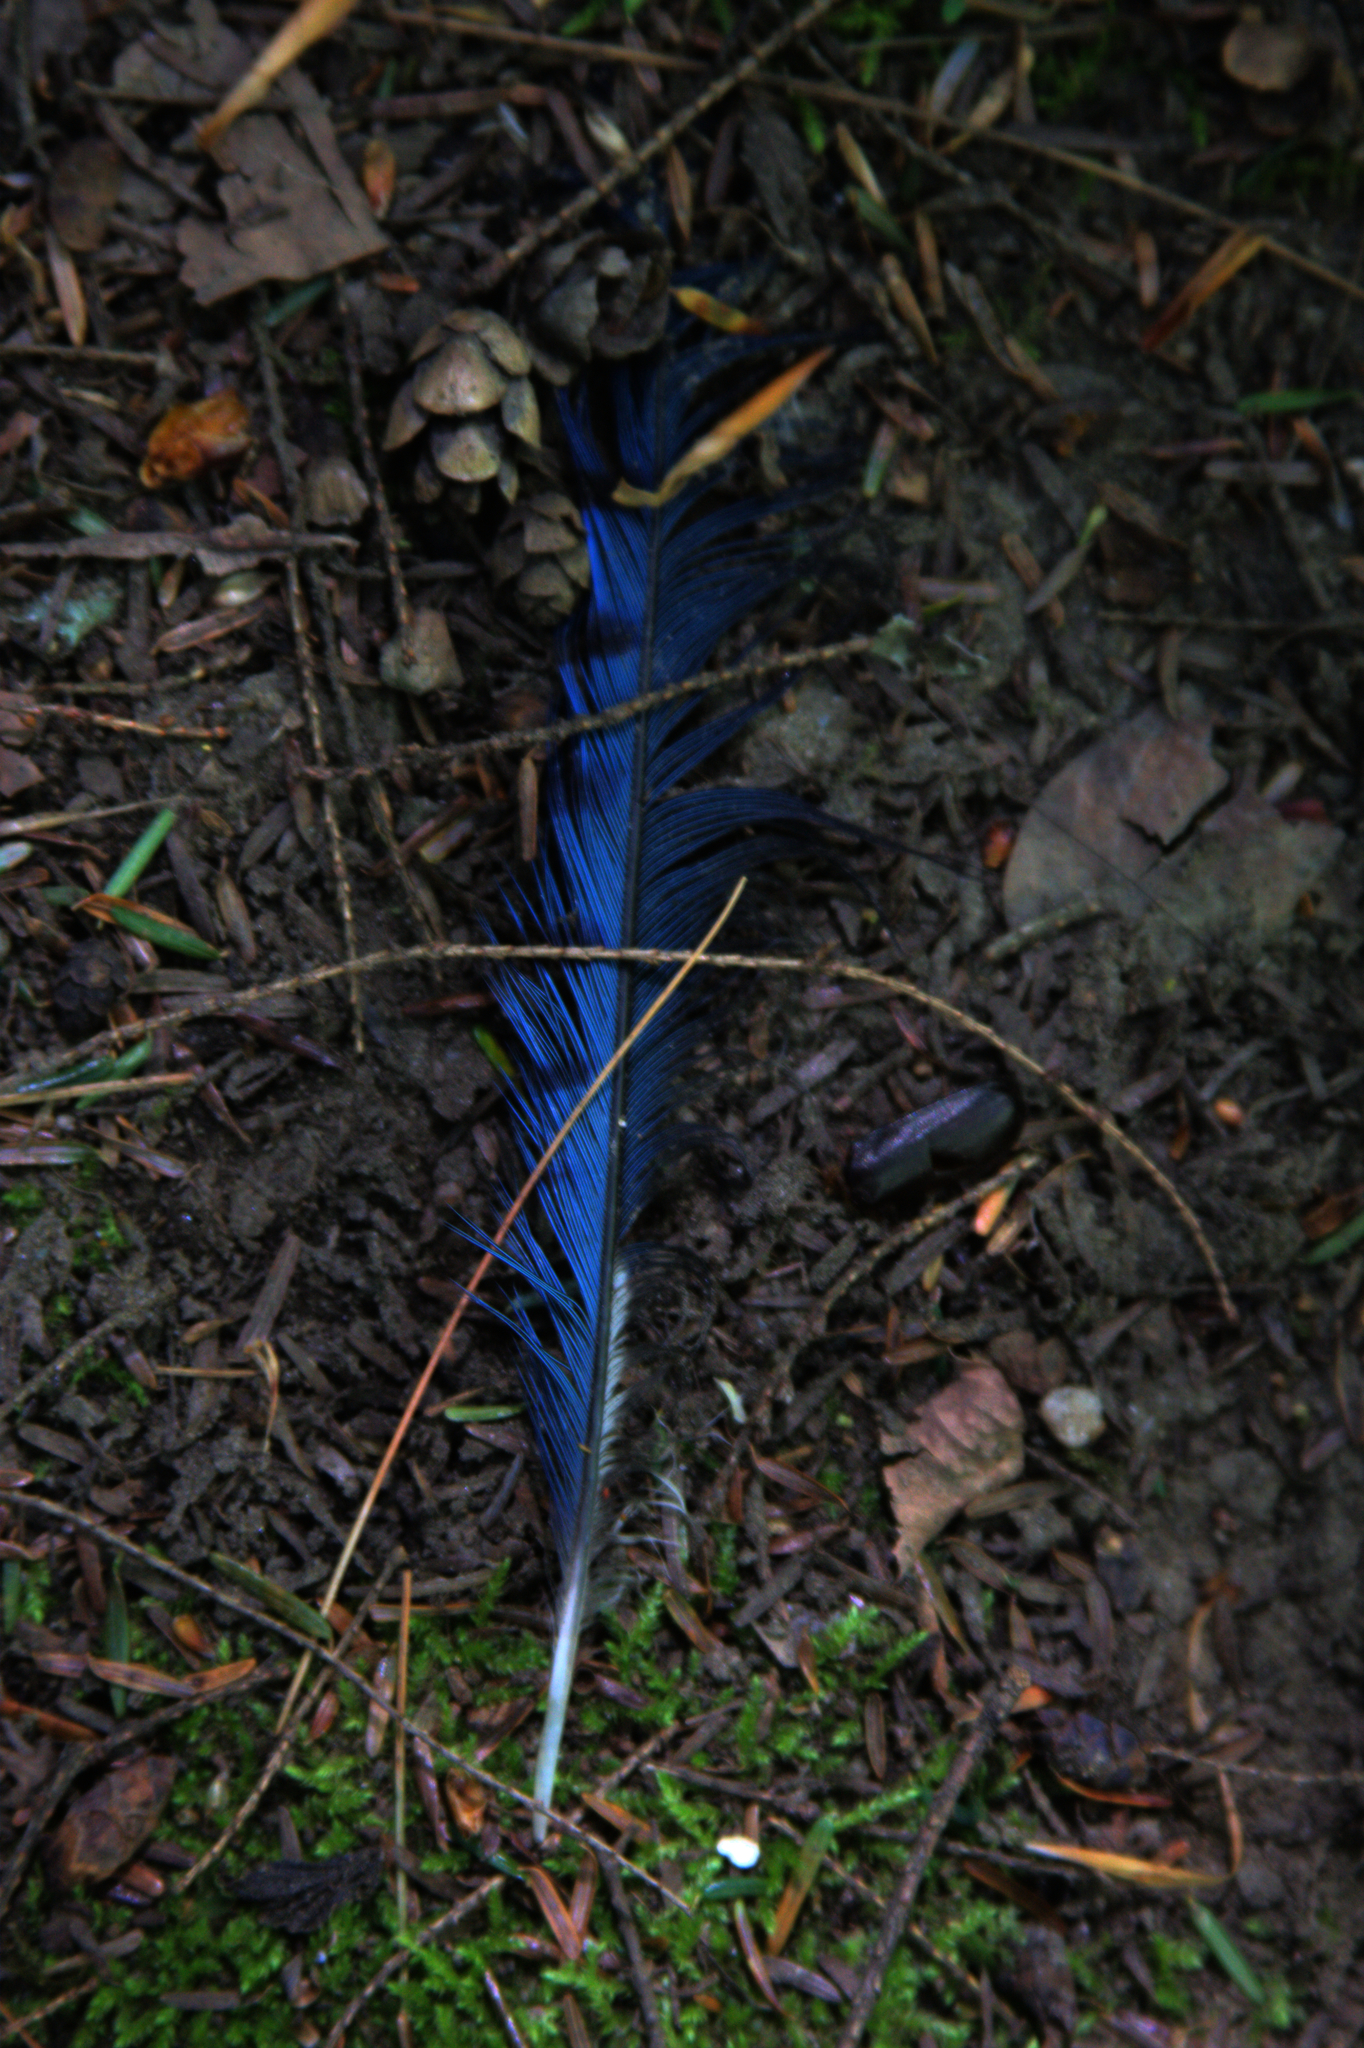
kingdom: Animalia
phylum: Chordata
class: Aves
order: Passeriformes
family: Corvidae
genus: Cyanocitta
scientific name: Cyanocitta cristata
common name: Blue jay
